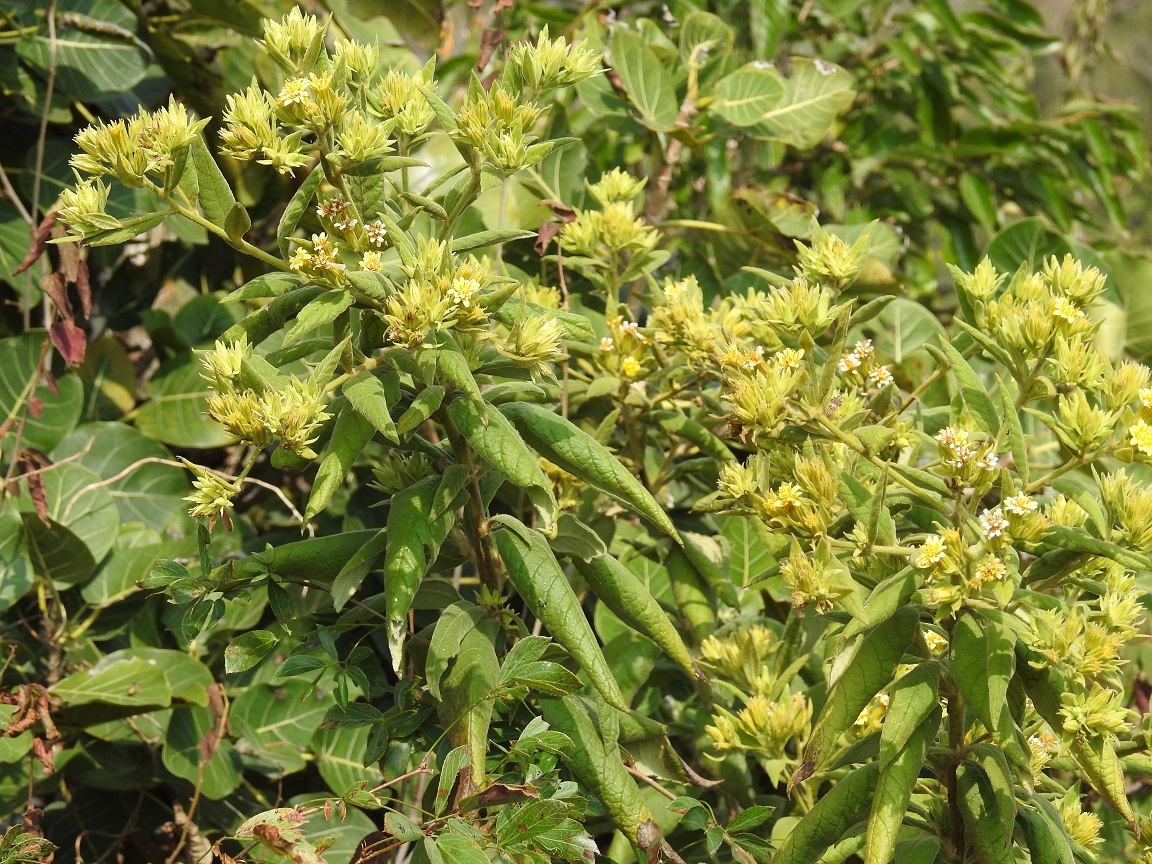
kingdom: Plantae
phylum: Tracheophyta
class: Magnoliopsida
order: Asterales
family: Asteraceae
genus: Trixis
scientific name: Trixis chiapensis
